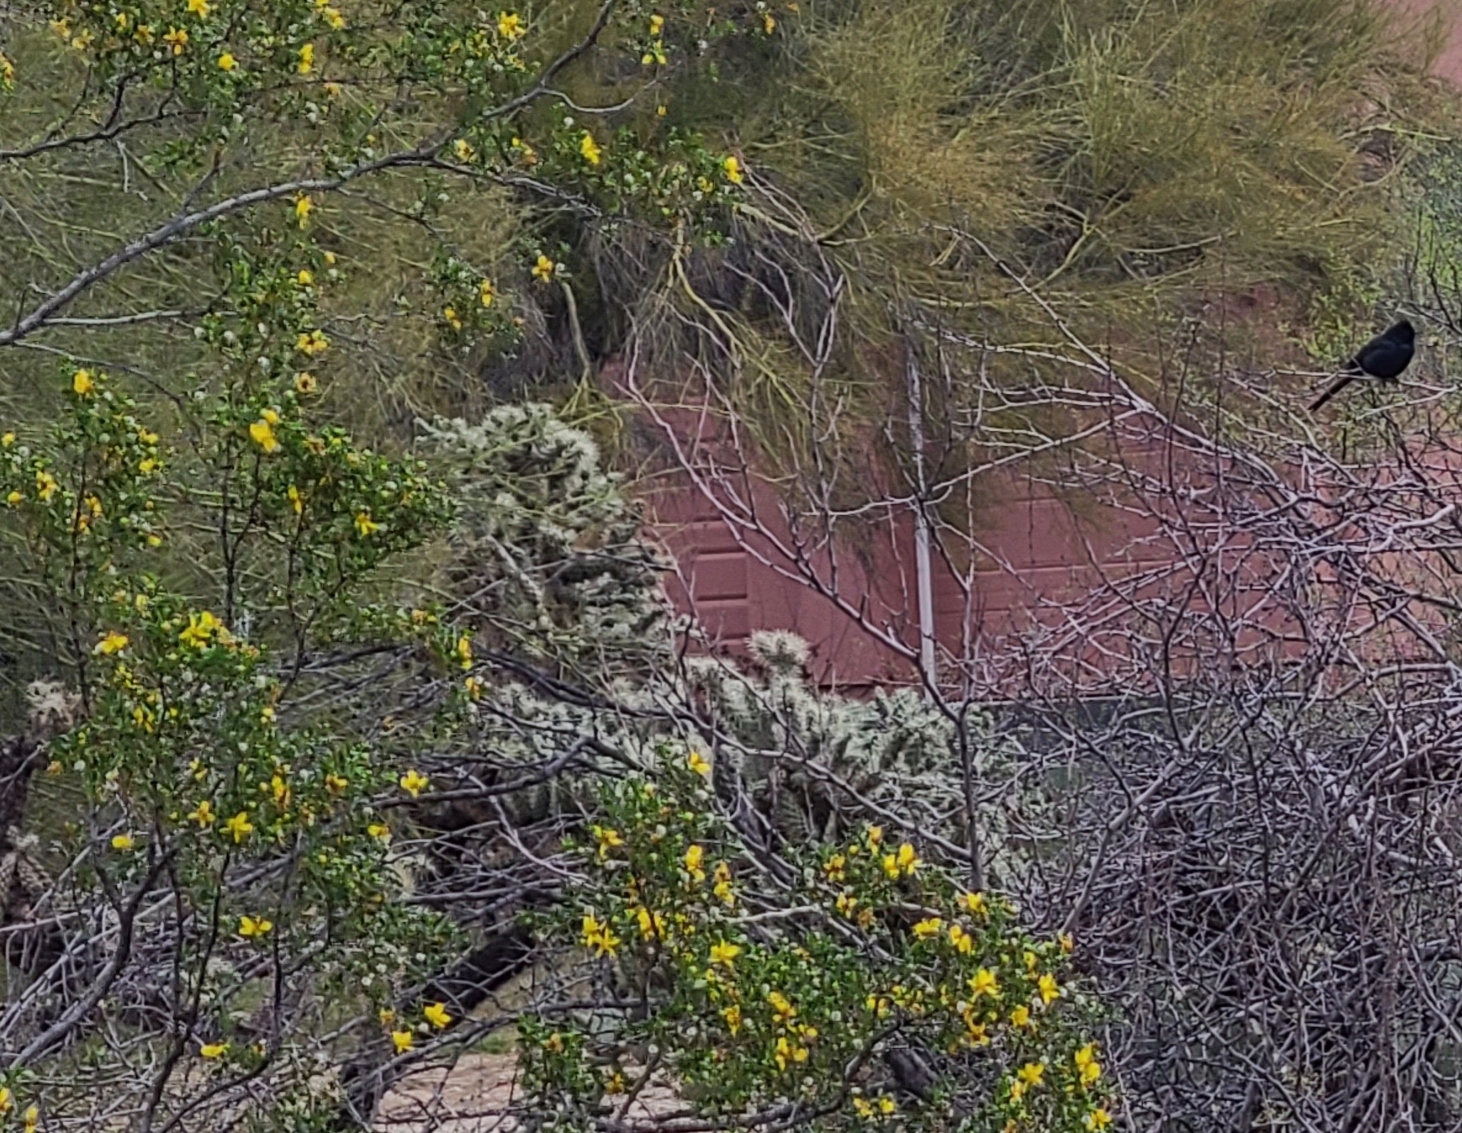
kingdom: Animalia
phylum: Chordata
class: Aves
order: Passeriformes
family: Ptilogonatidae
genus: Phainopepla
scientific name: Phainopepla nitens
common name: Phainopepla
